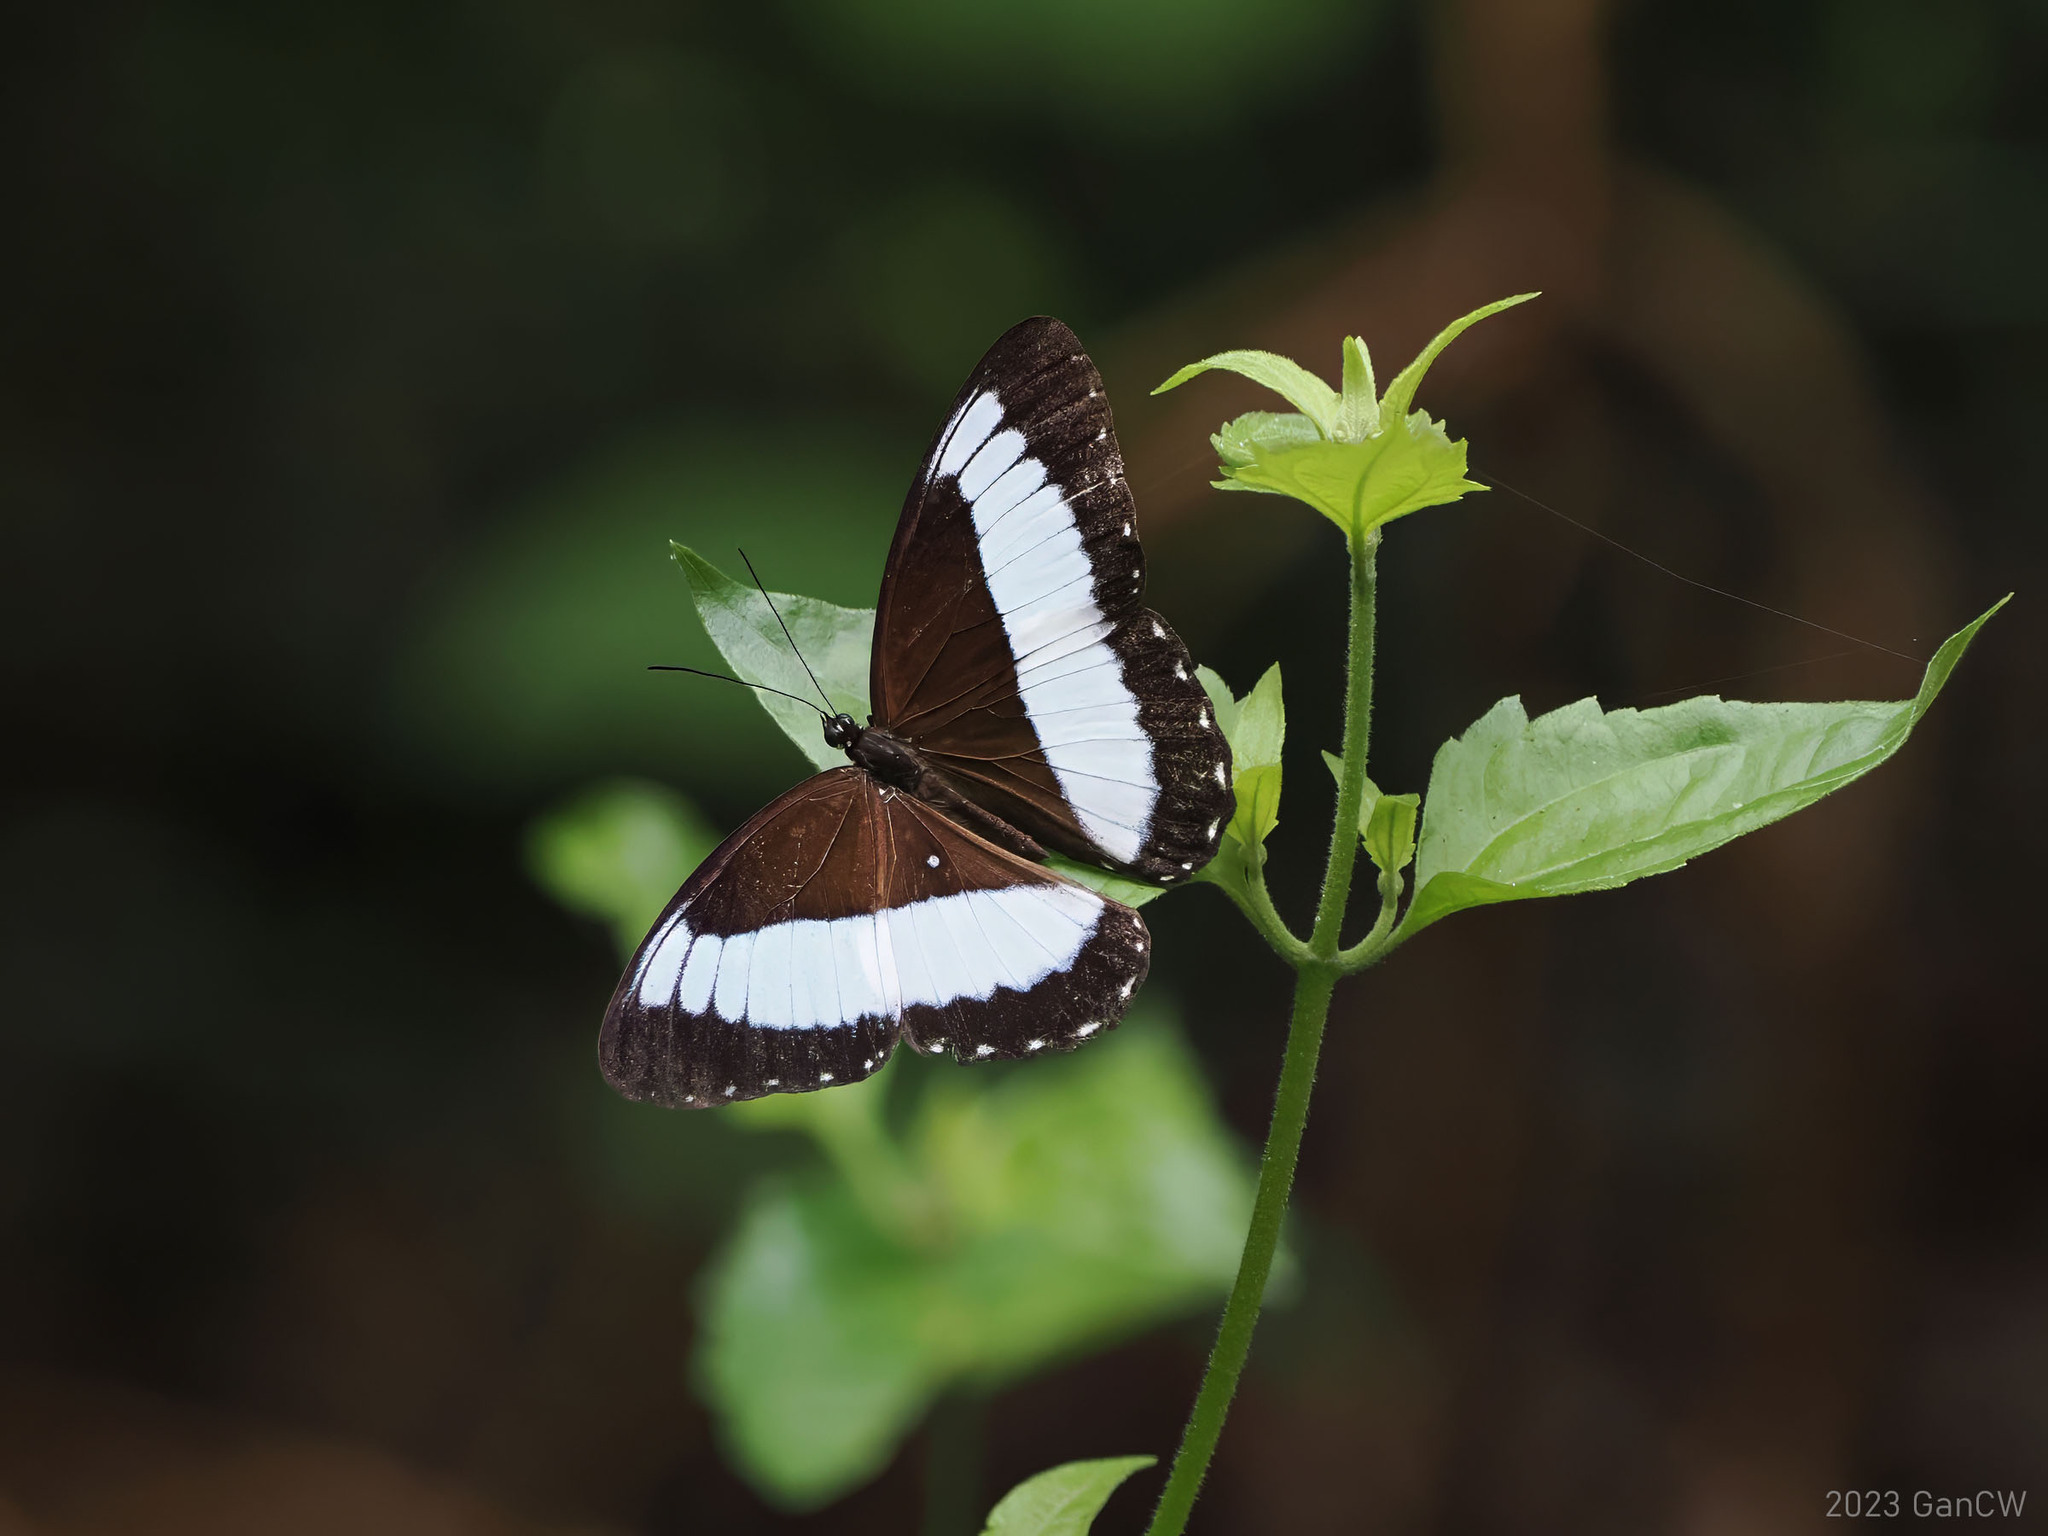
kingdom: Animalia
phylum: Arthropoda
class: Insecta
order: Lepidoptera
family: Nymphalidae
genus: Zethera
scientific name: Zethera pimplea
